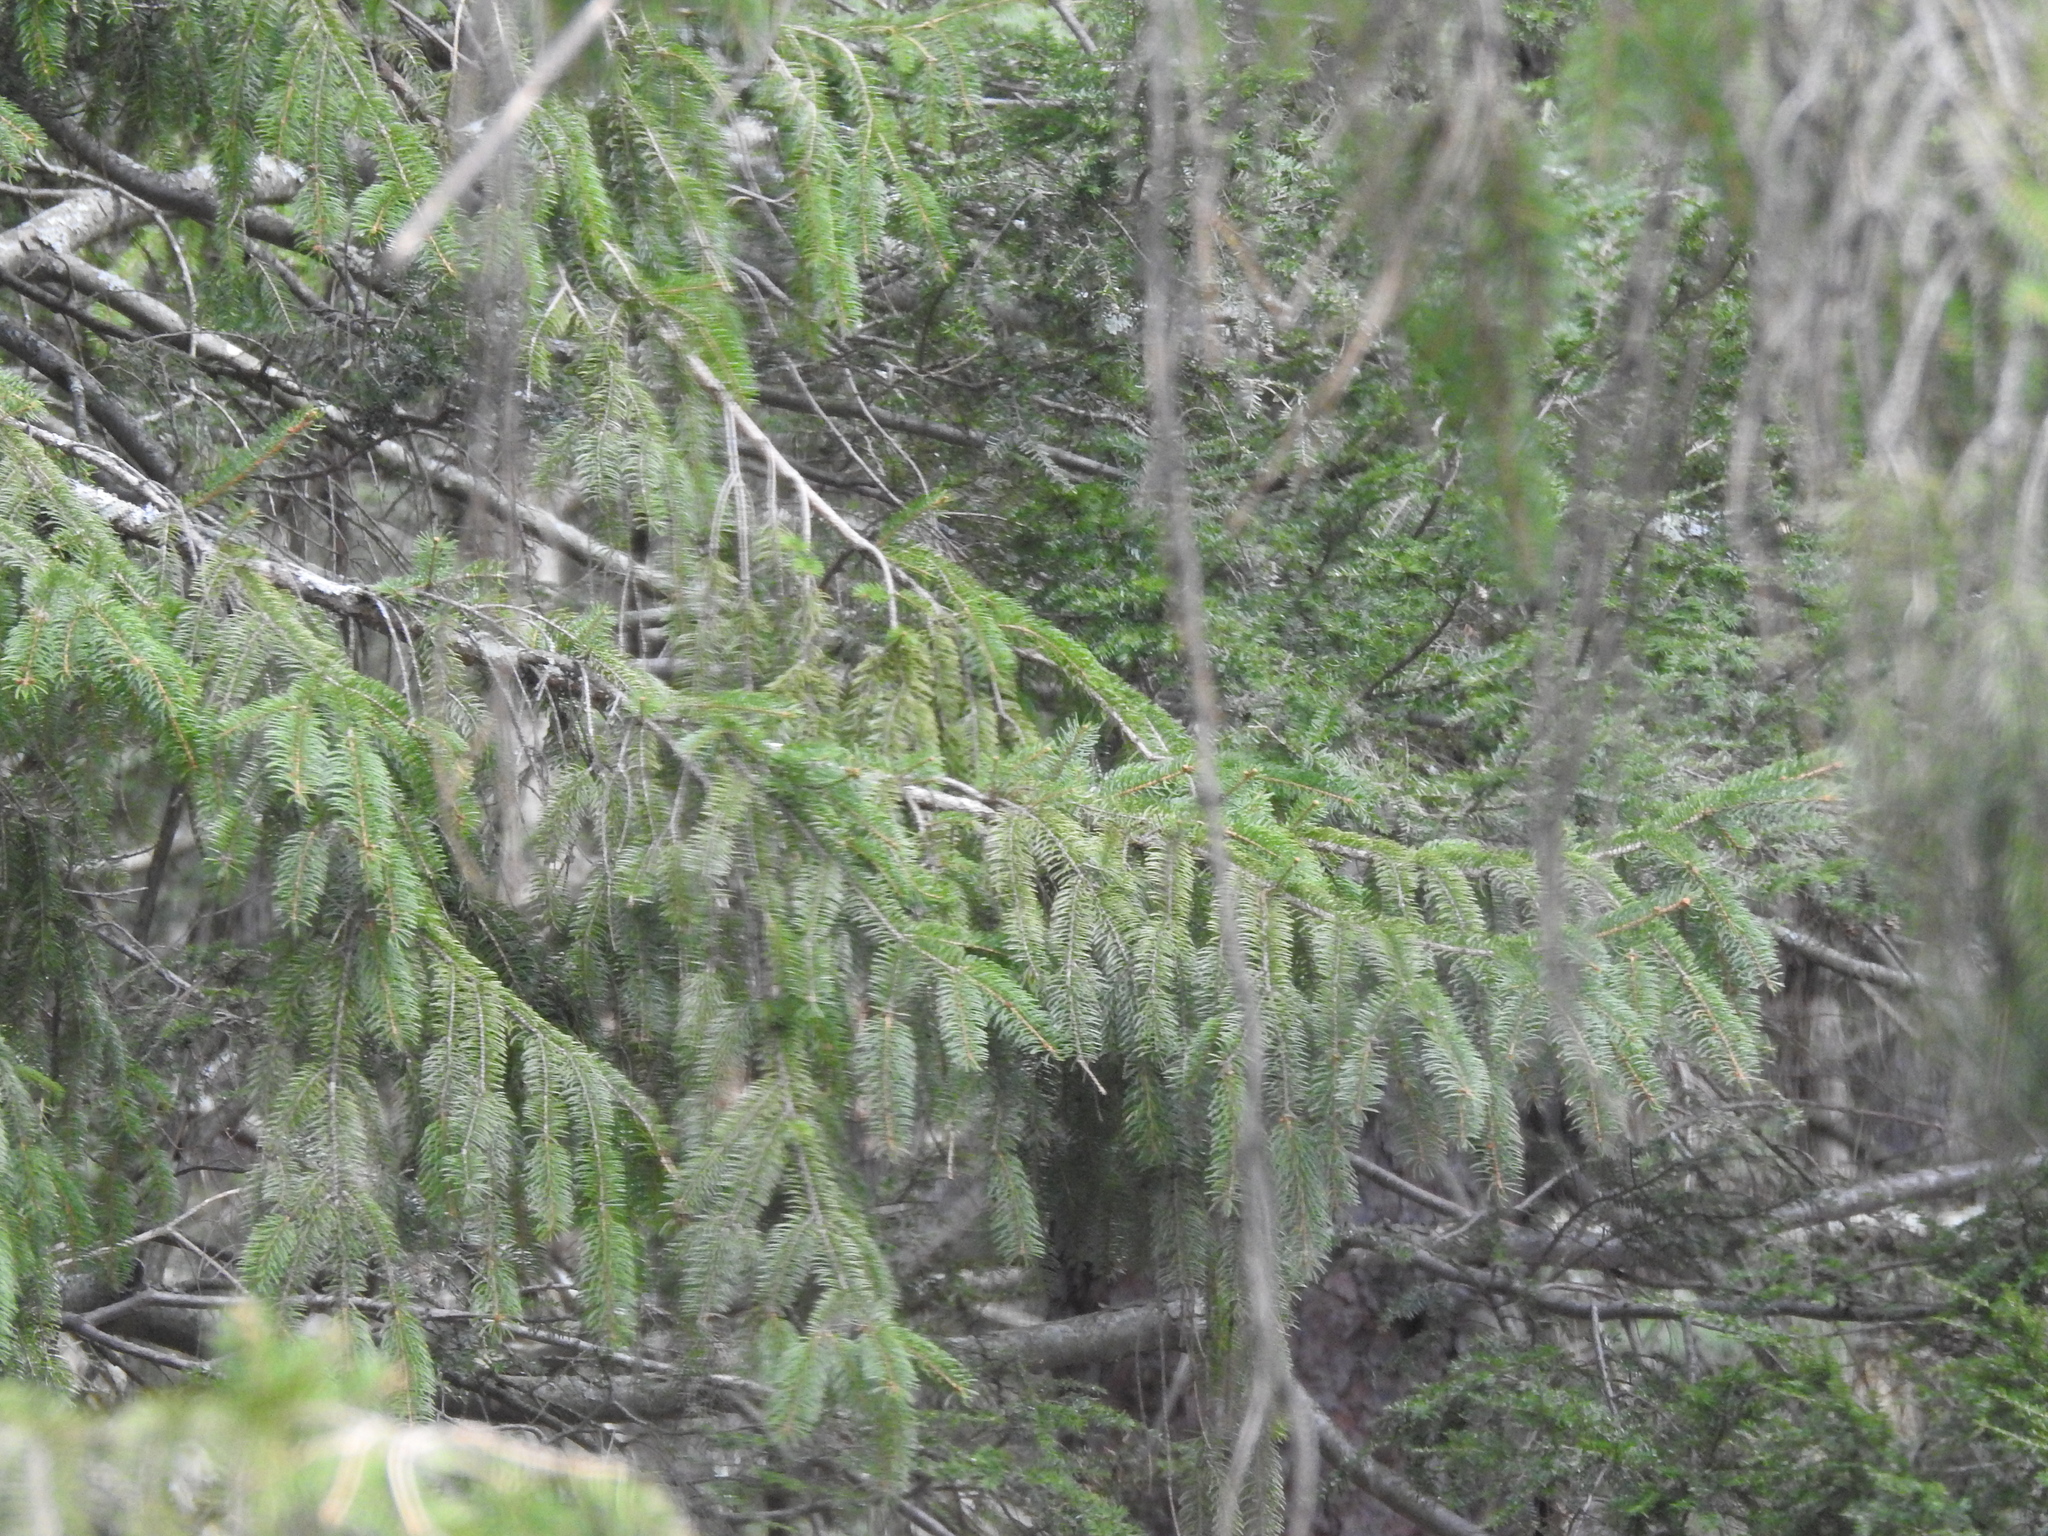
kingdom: Plantae
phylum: Tracheophyta
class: Pinopsida
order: Pinales
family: Pinaceae
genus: Picea
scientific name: Picea abies
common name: Norway spruce
